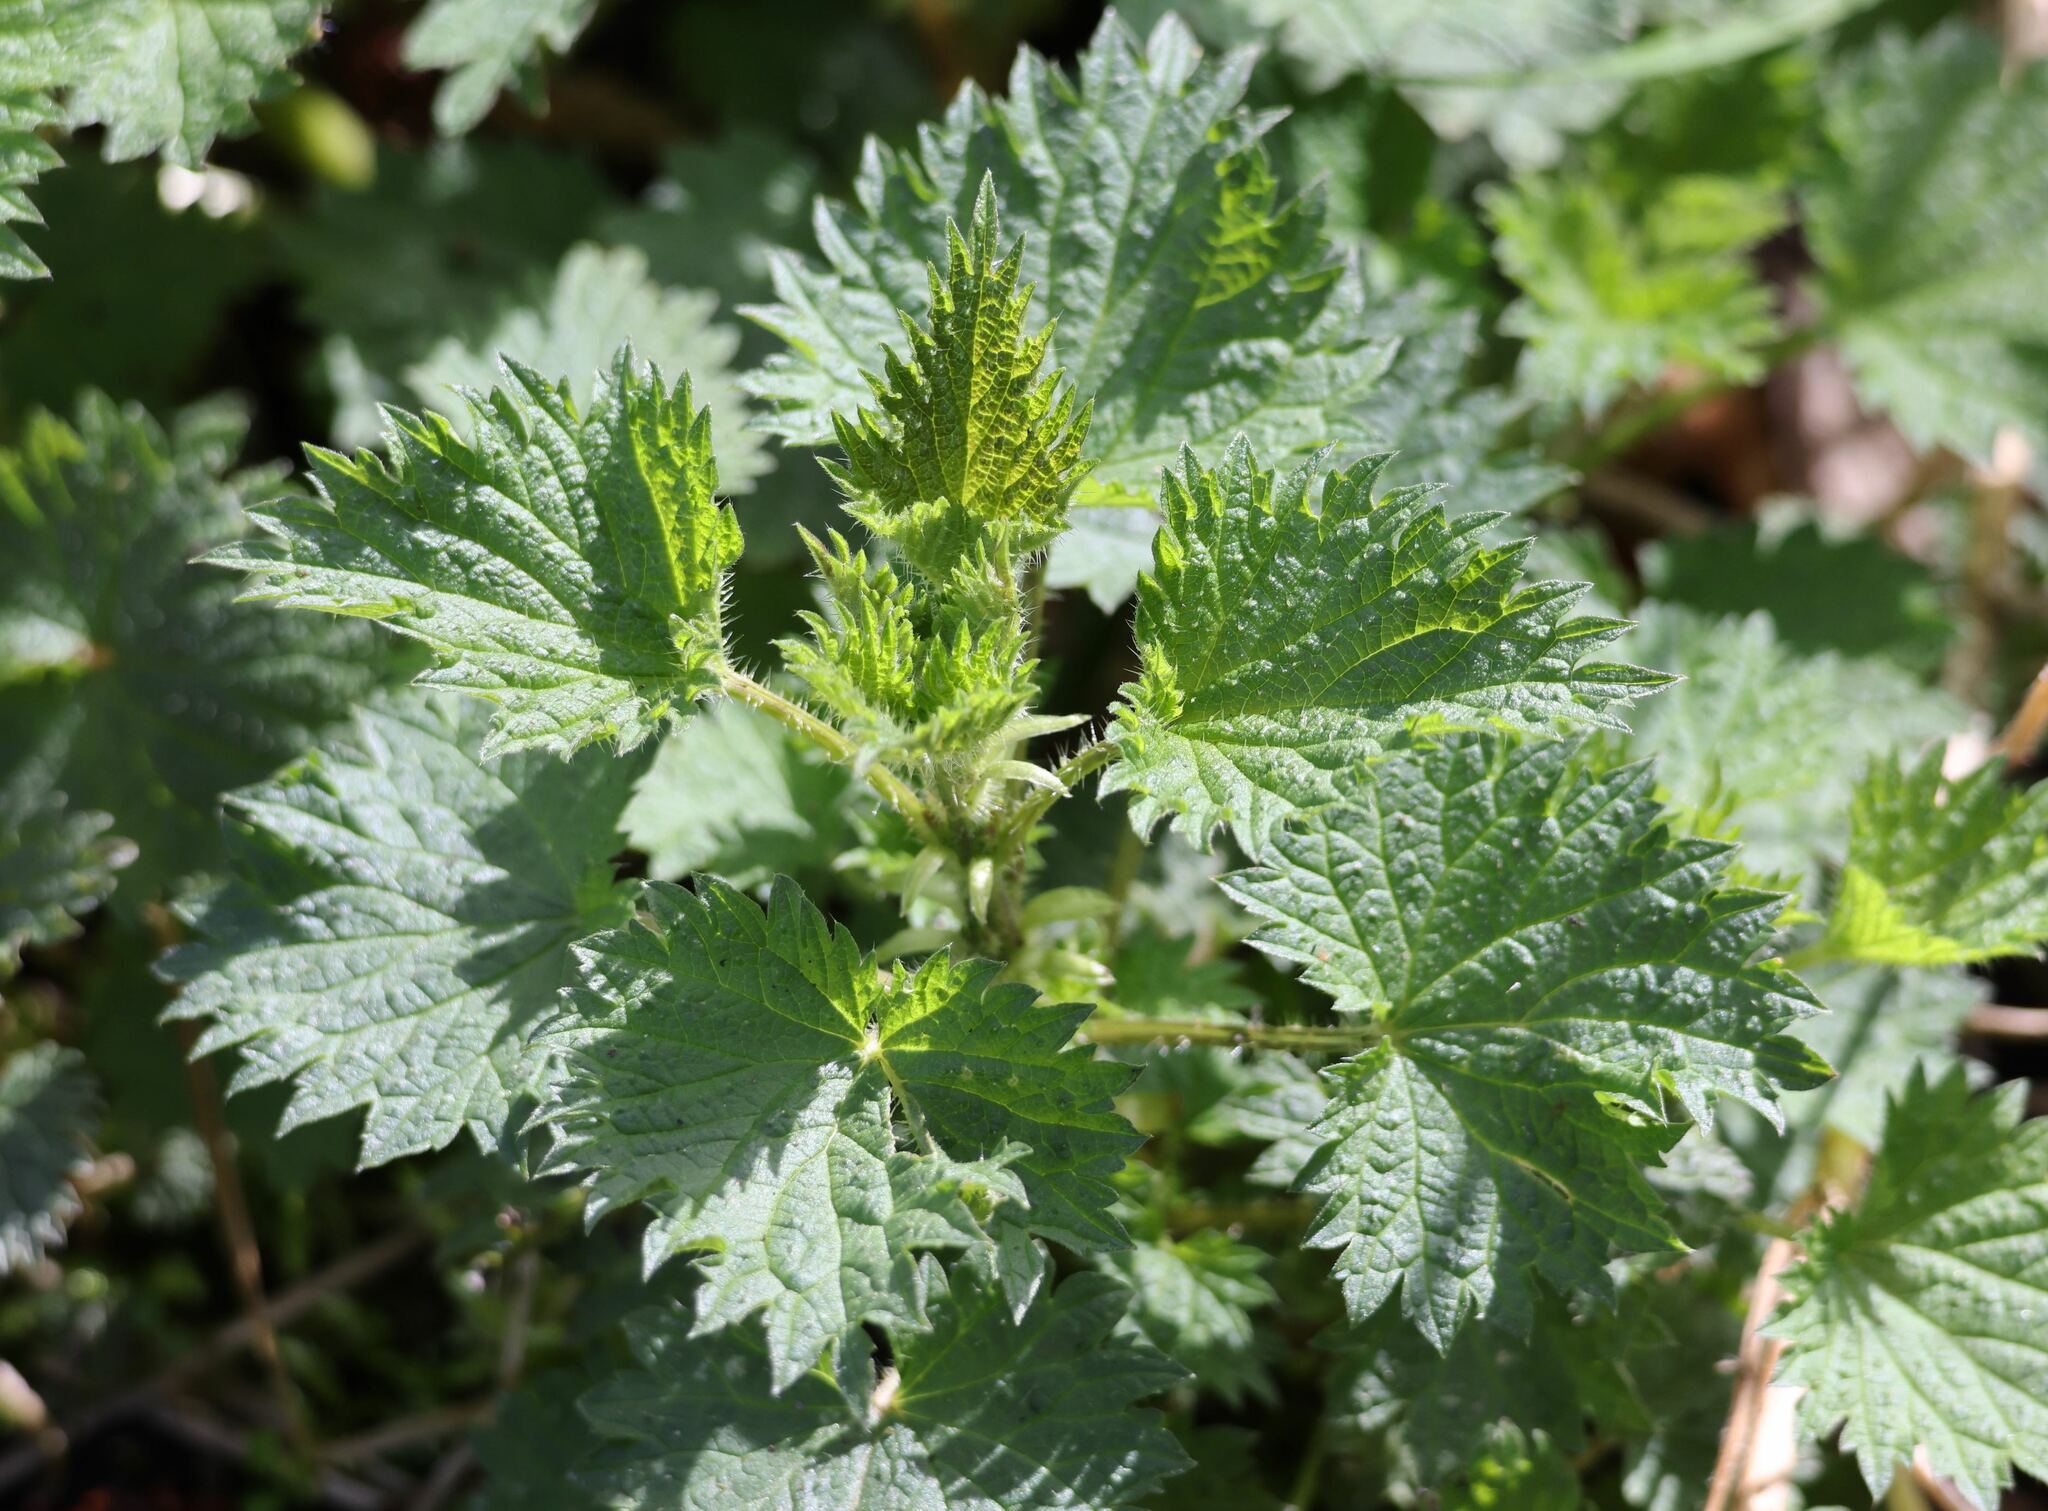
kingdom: Plantae
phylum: Tracheophyta
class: Magnoliopsida
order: Rosales
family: Urticaceae
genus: Urtica
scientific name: Urtica dioica
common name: Common nettle
